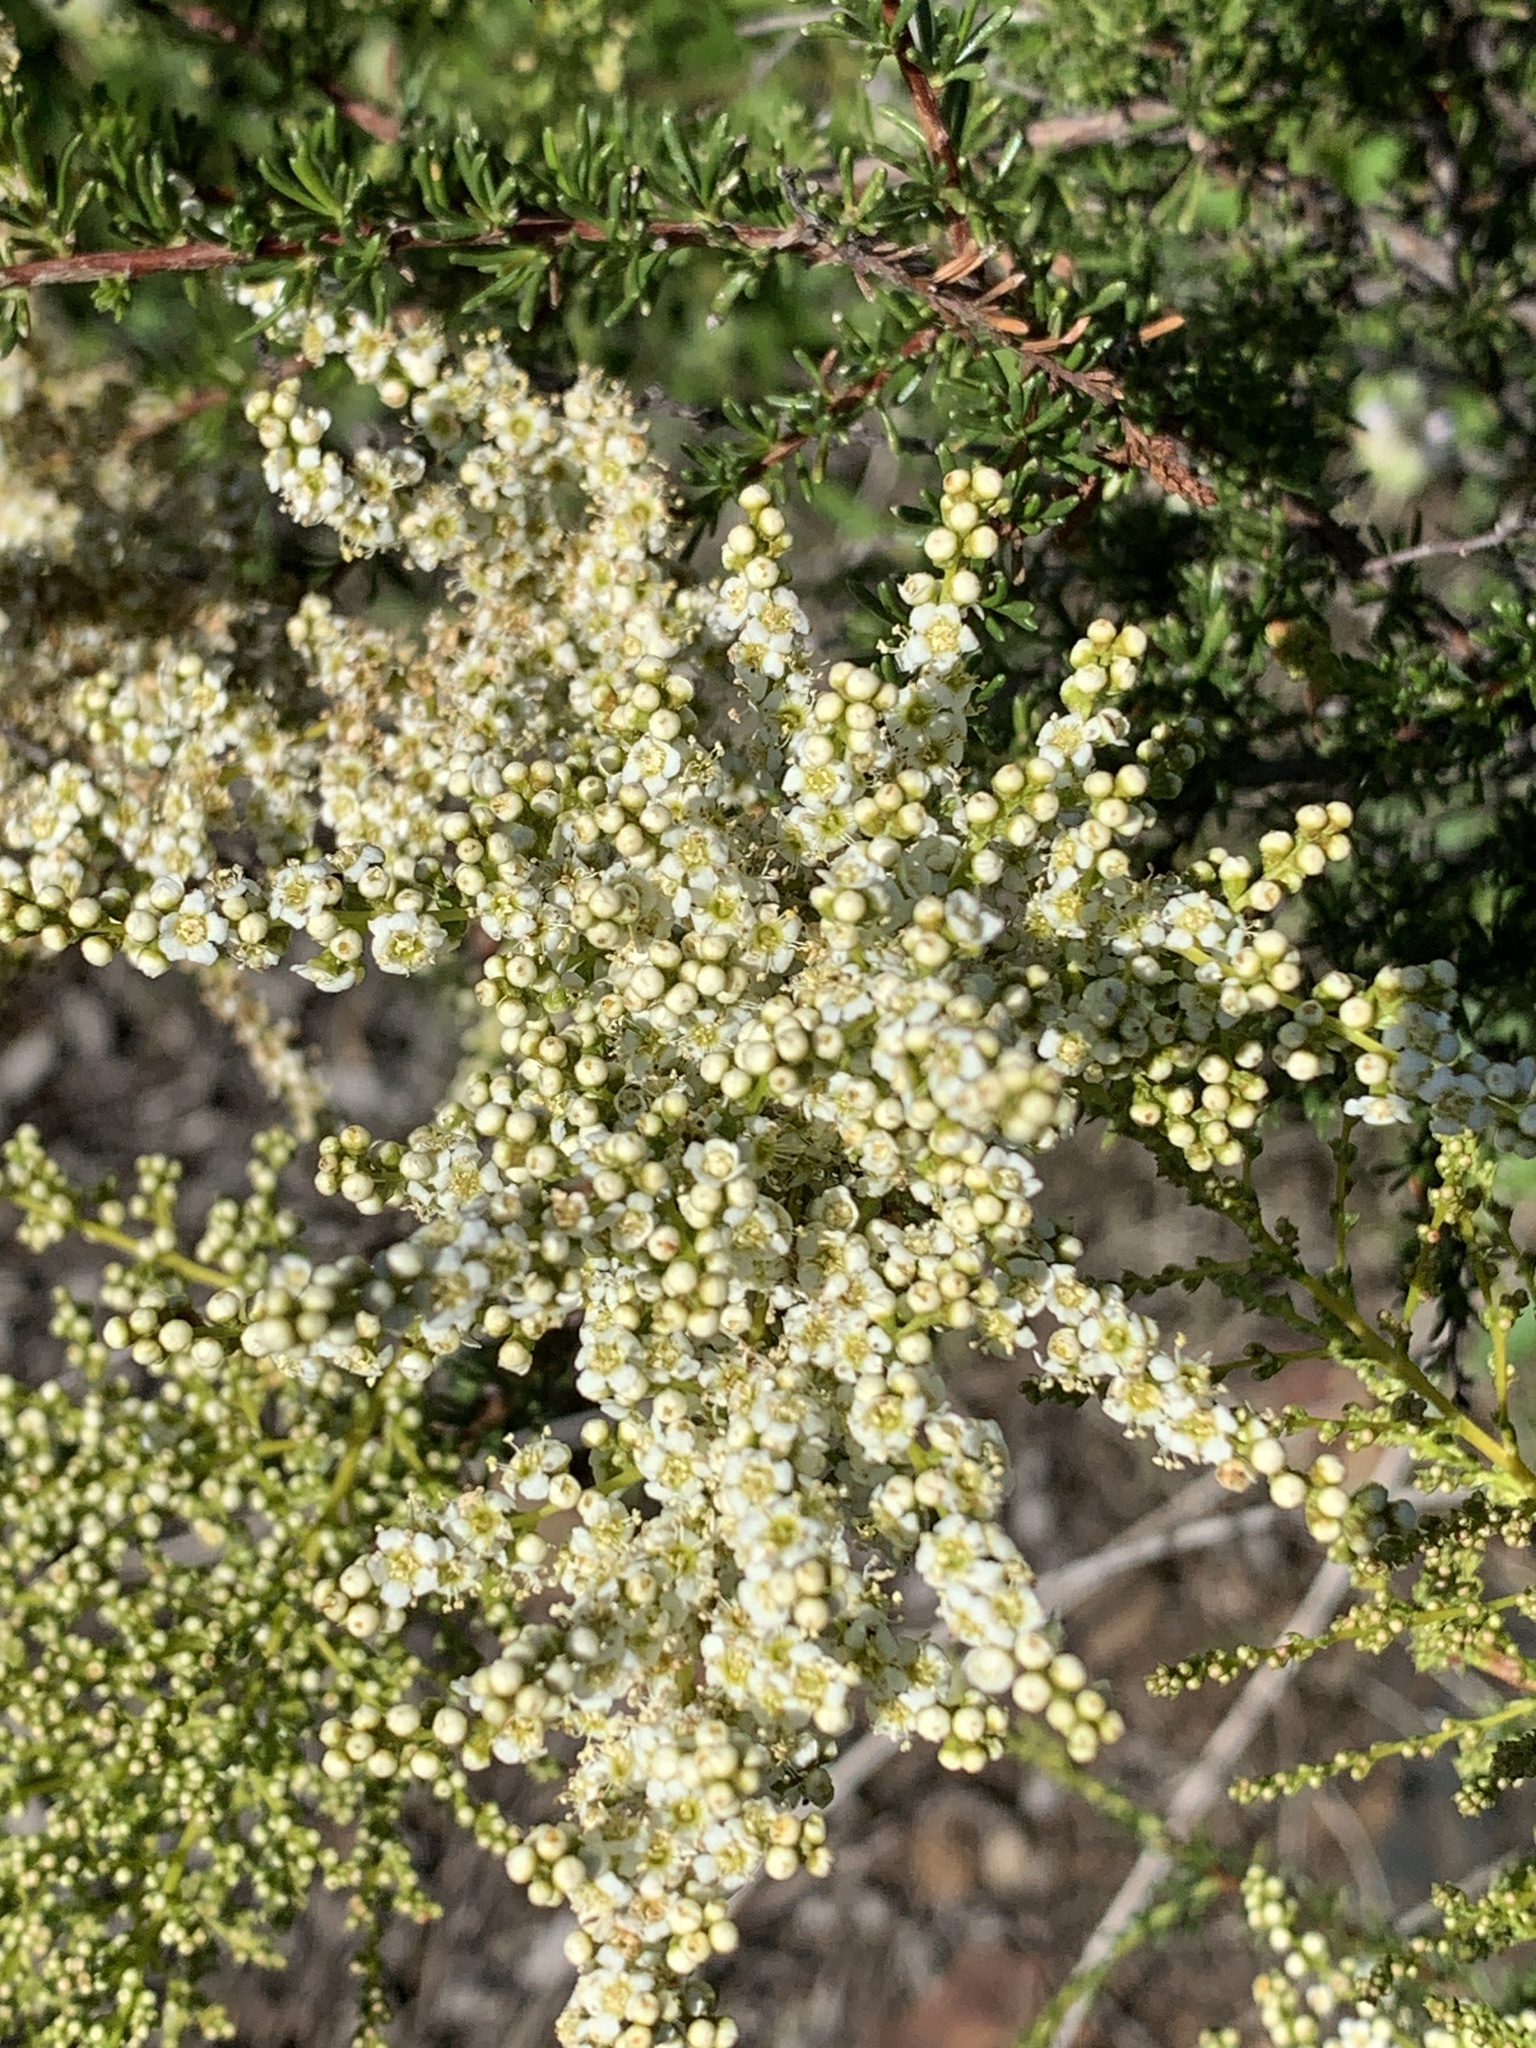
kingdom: Plantae
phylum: Tracheophyta
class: Magnoliopsida
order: Rosales
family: Rosaceae
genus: Adenostoma
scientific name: Adenostoma fasciculatum
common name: Chamise
